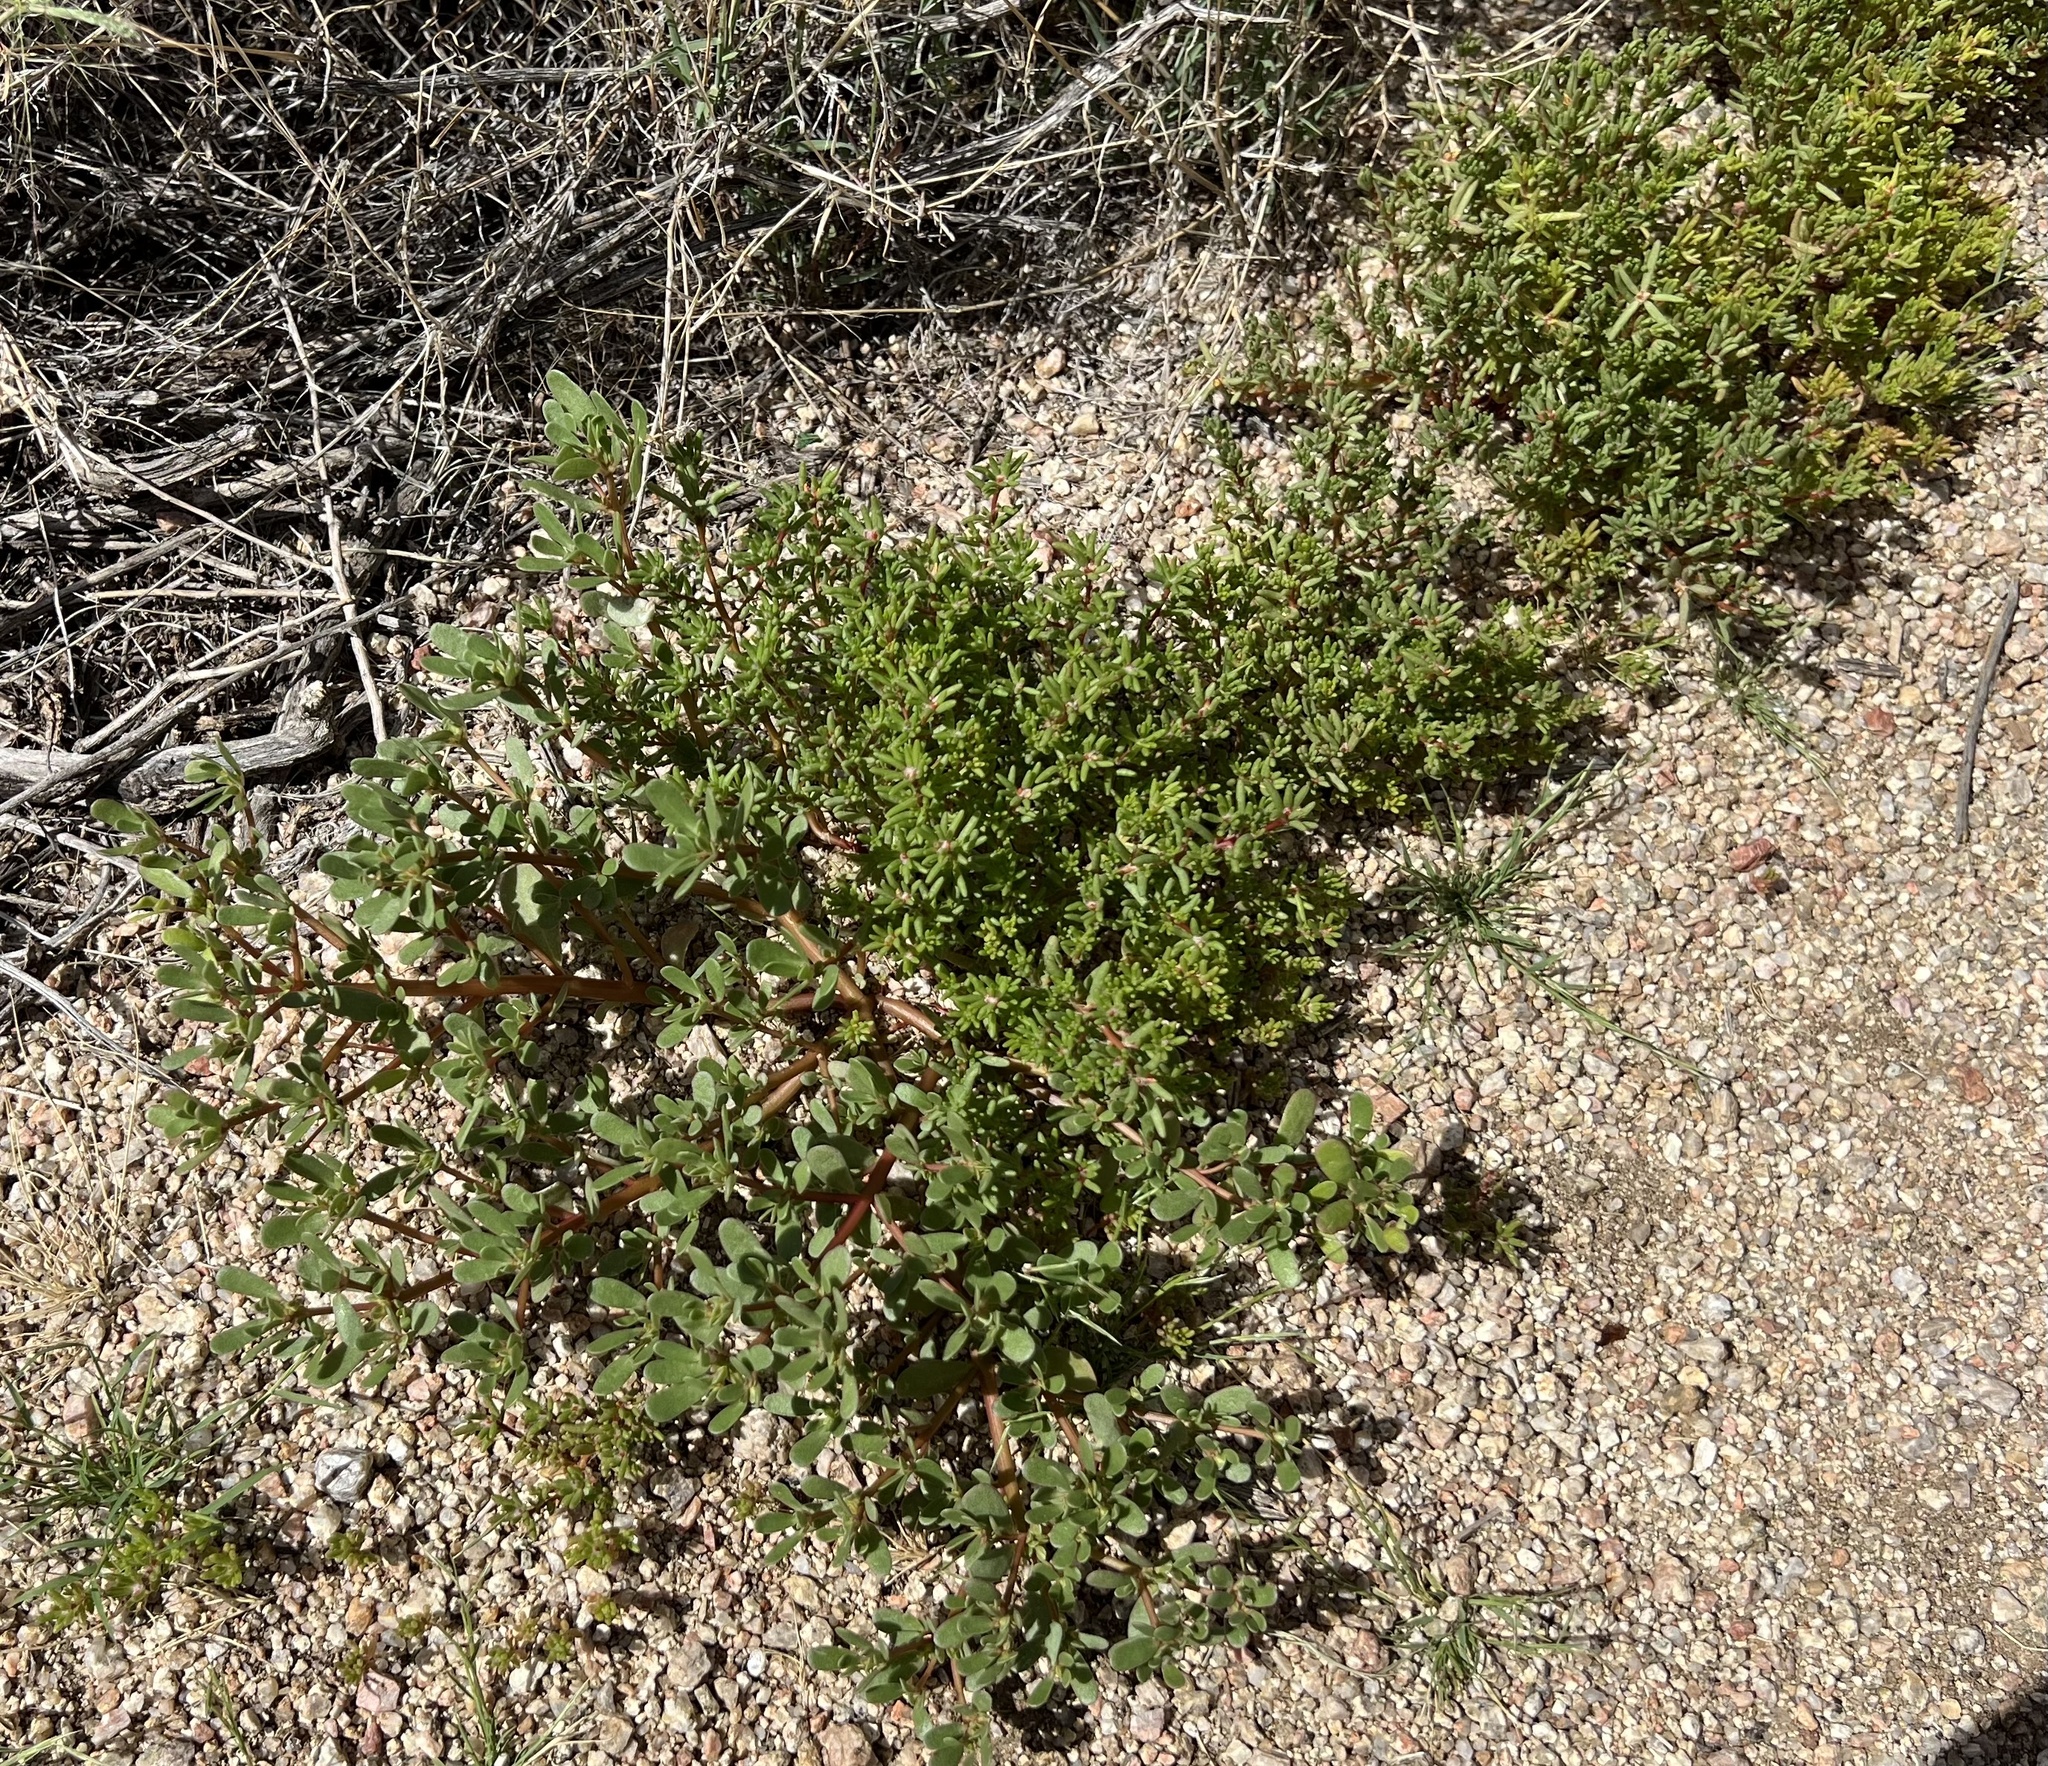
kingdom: Plantae
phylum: Tracheophyta
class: Magnoliopsida
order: Caryophyllales
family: Portulacaceae
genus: Portulaca
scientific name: Portulaca oleracea
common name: Common purslane
